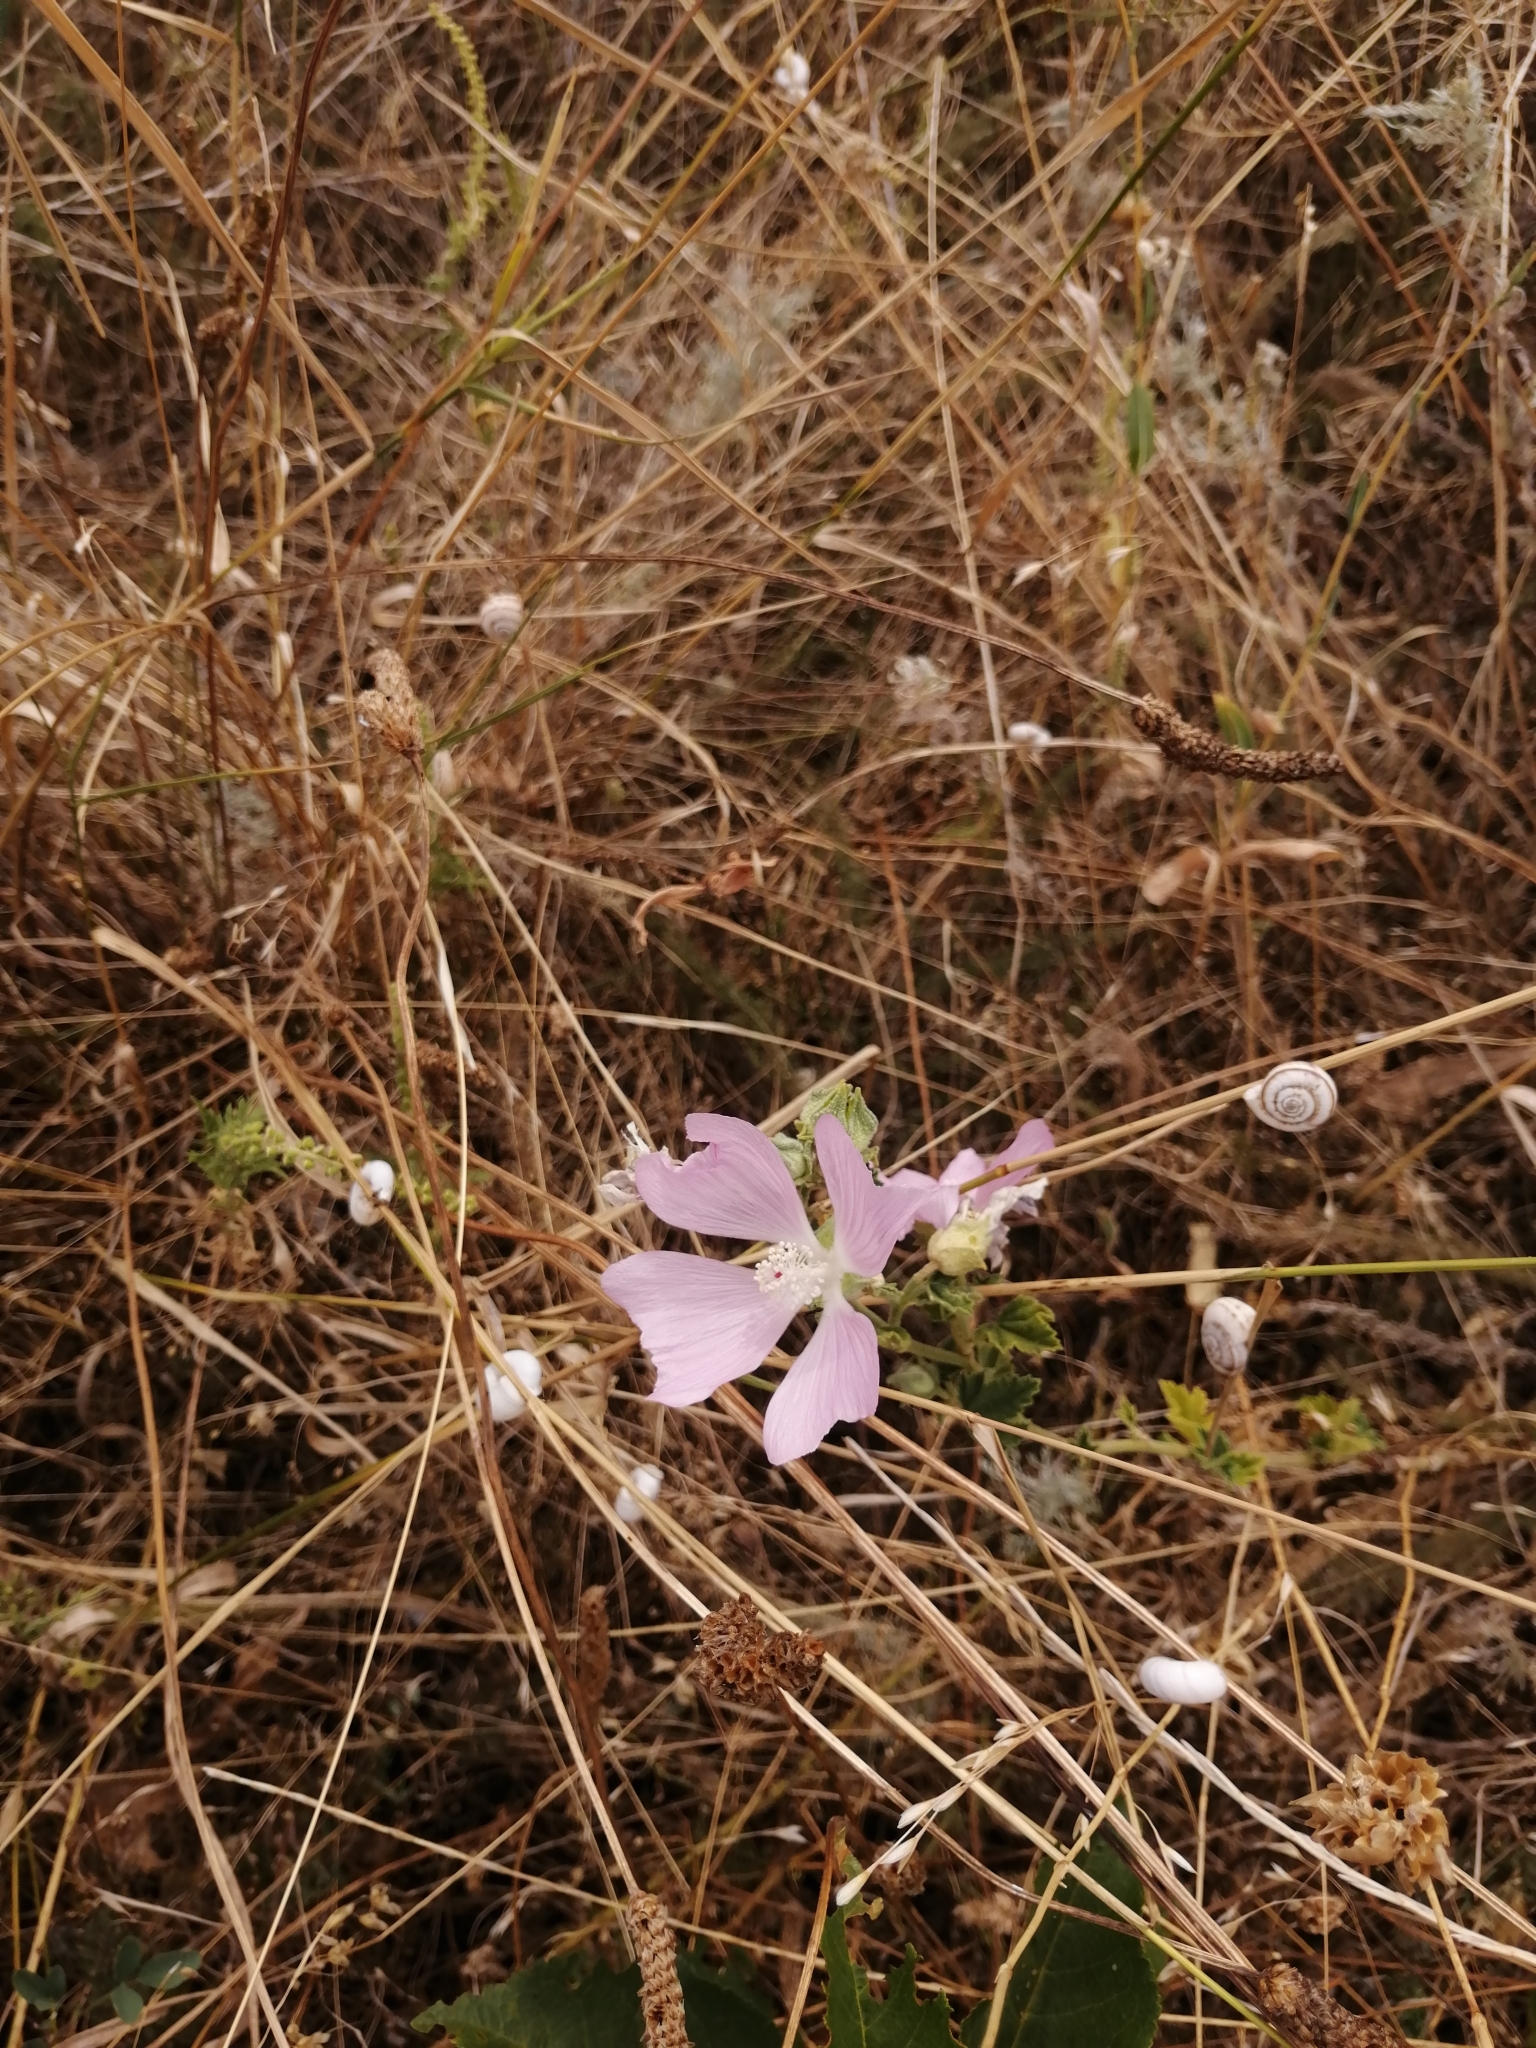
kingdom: Plantae
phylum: Tracheophyta
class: Magnoliopsida
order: Malvales
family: Malvaceae
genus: Malva
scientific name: Malva thuringiaca
